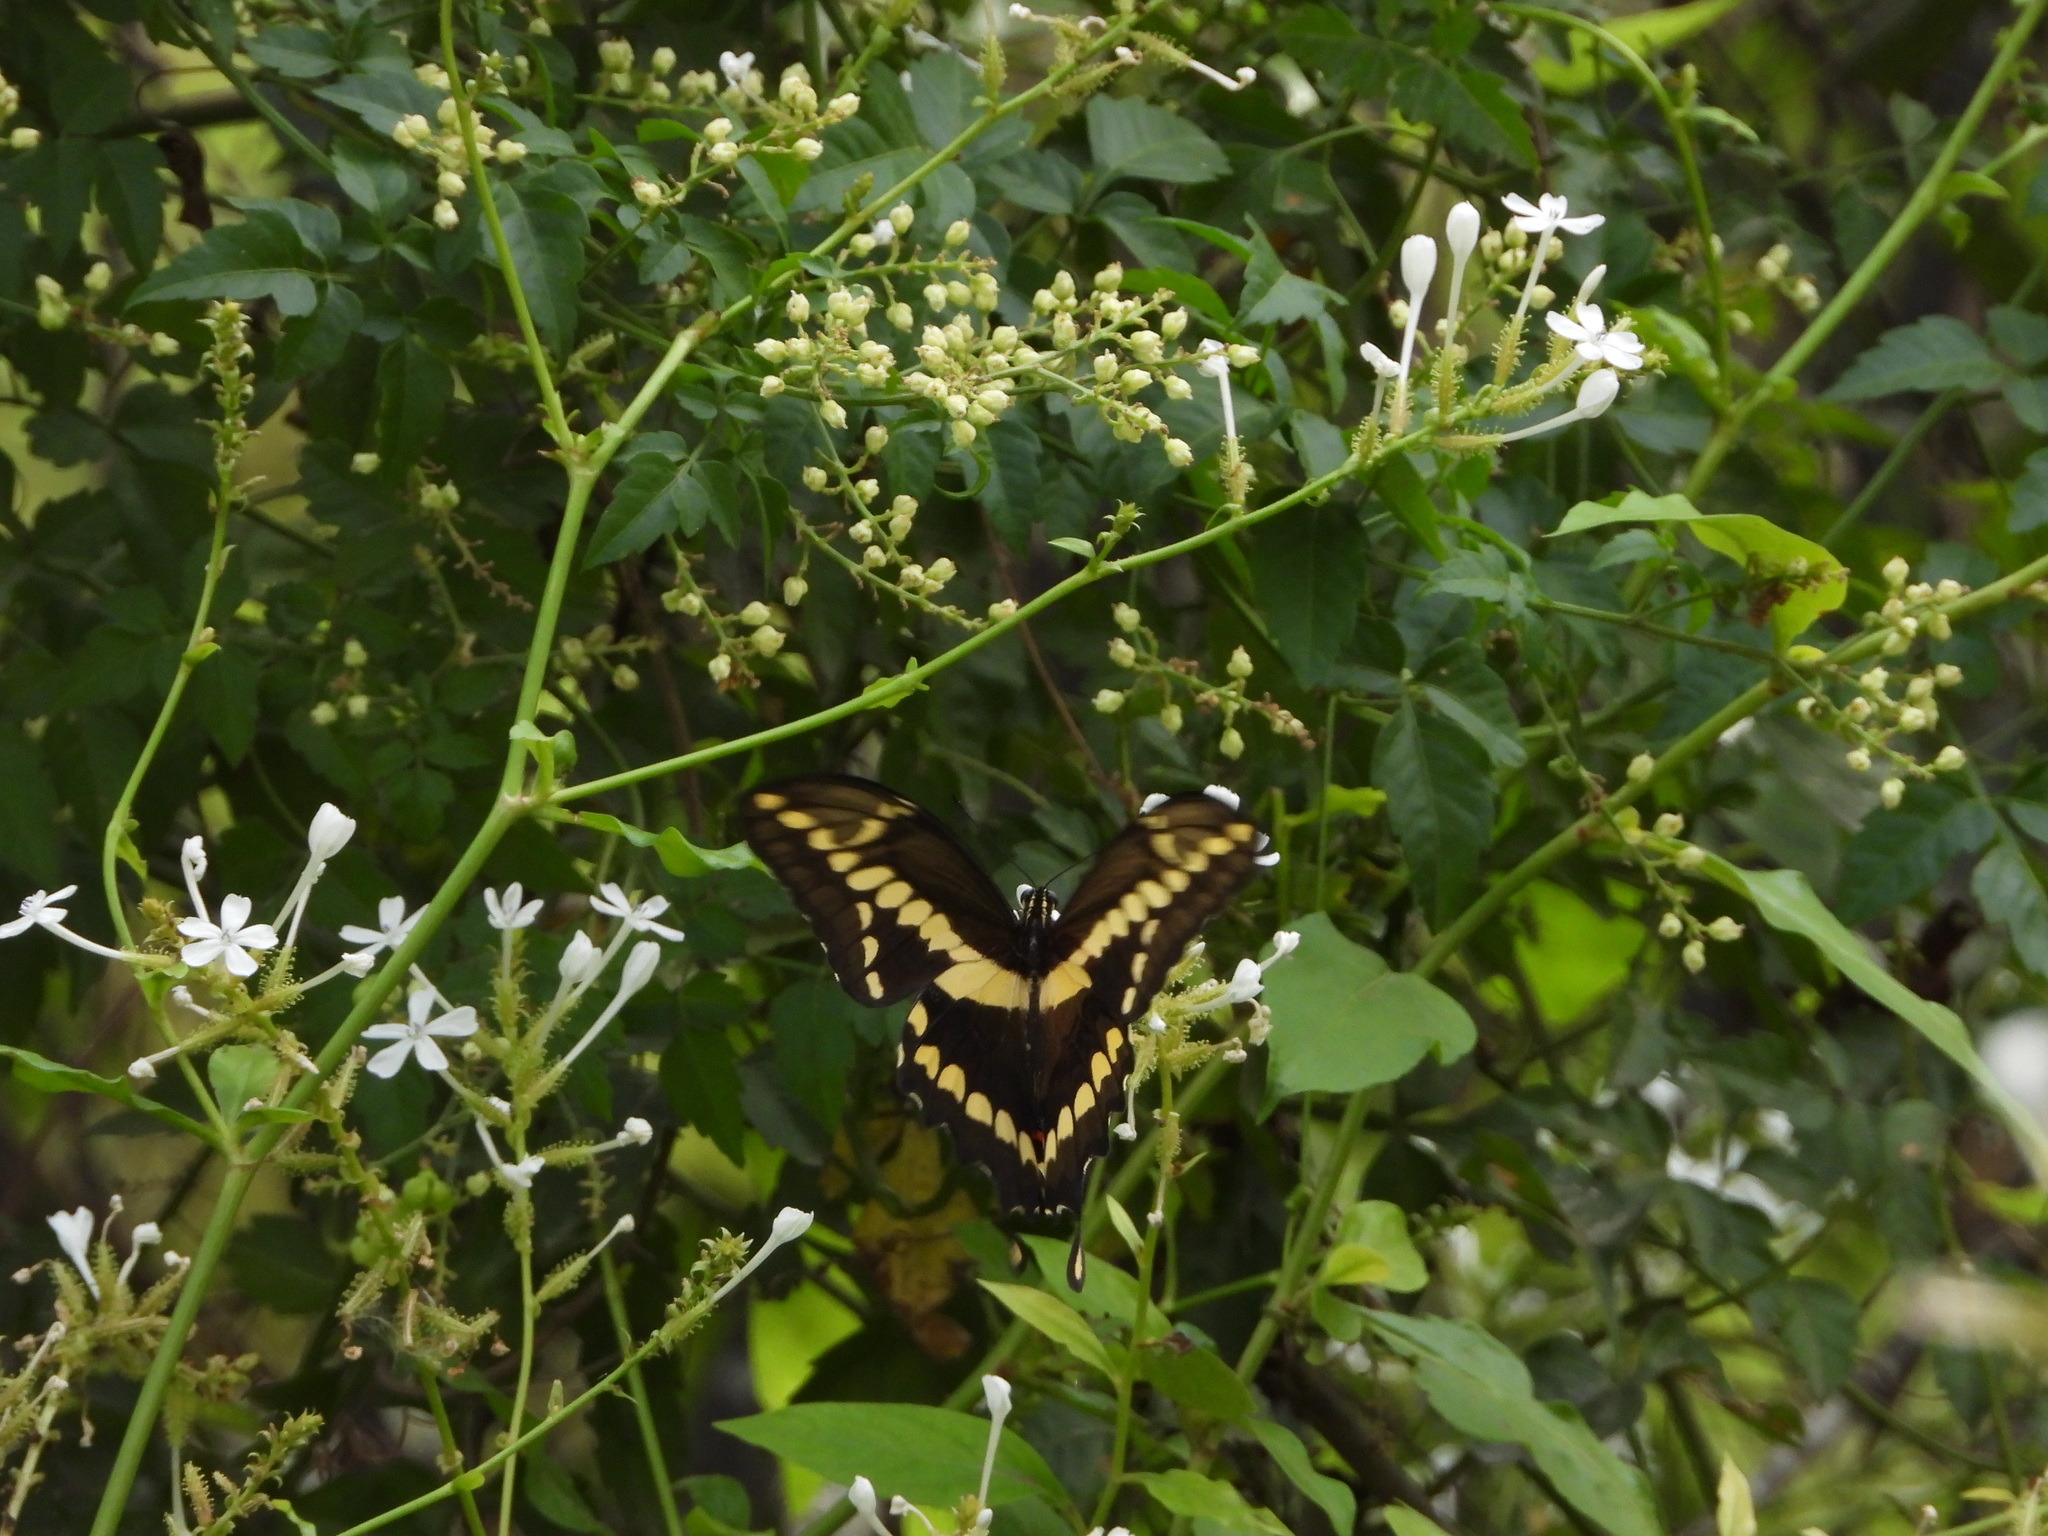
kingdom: Animalia
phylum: Arthropoda
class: Insecta
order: Lepidoptera
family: Papilionidae
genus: Papilio
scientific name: Papilio rumiko
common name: Western giant swallowtail
